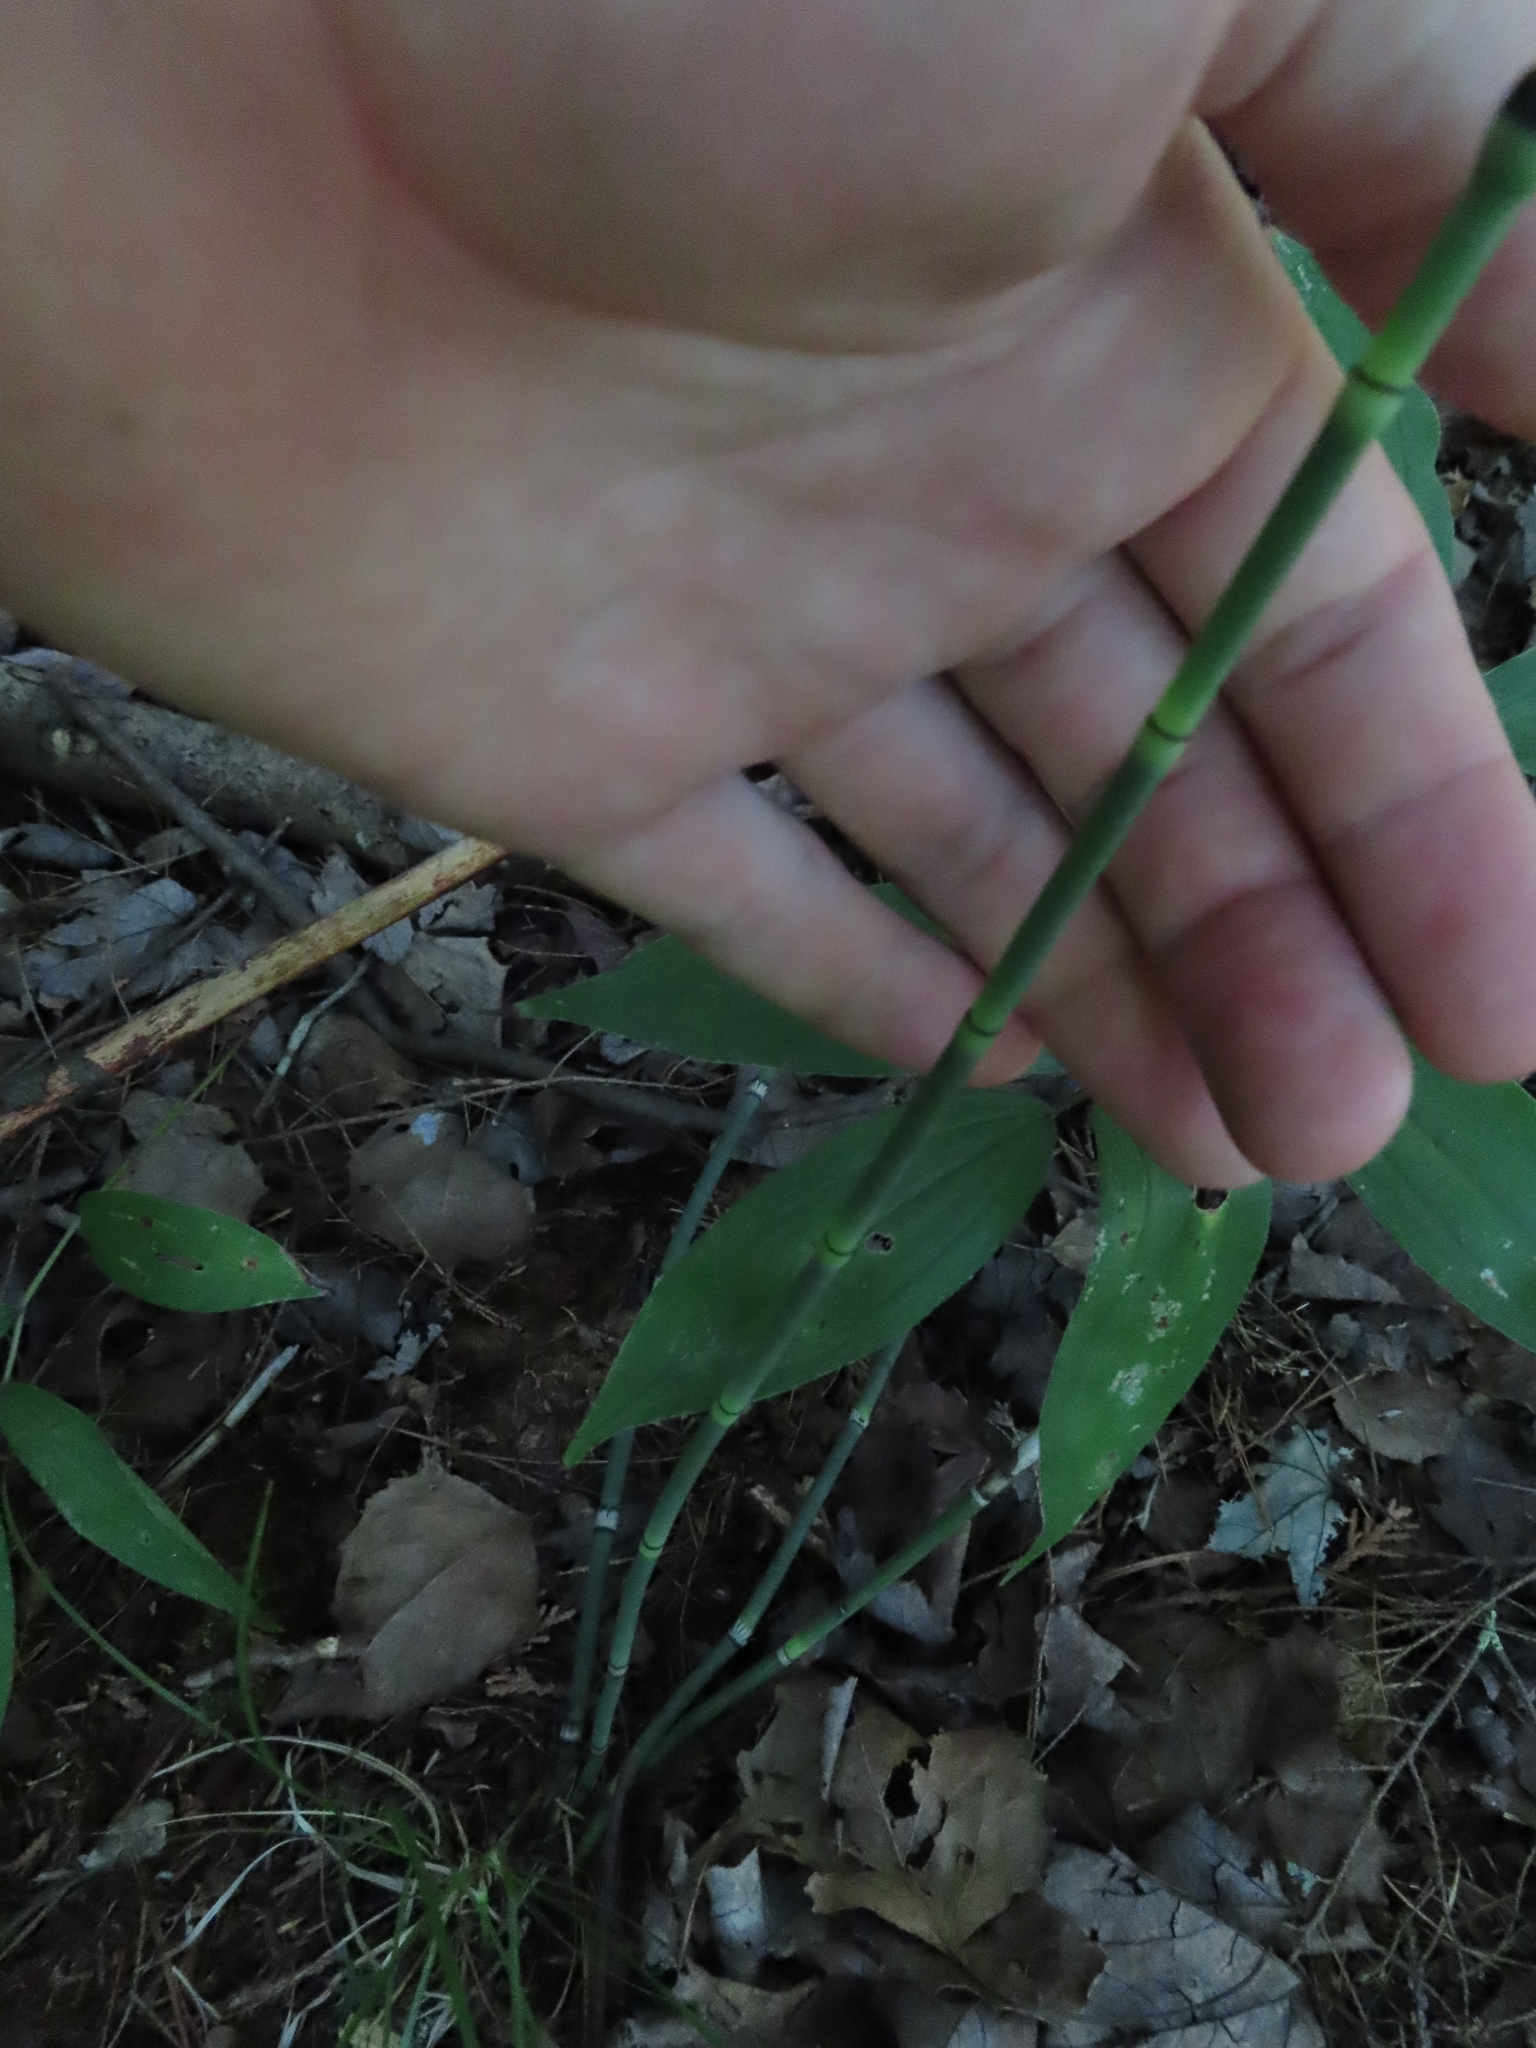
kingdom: Plantae
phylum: Tracheophyta
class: Polypodiopsida
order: Equisetales
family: Equisetaceae
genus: Equisetum
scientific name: Equisetum hyemale
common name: Rough horsetail
